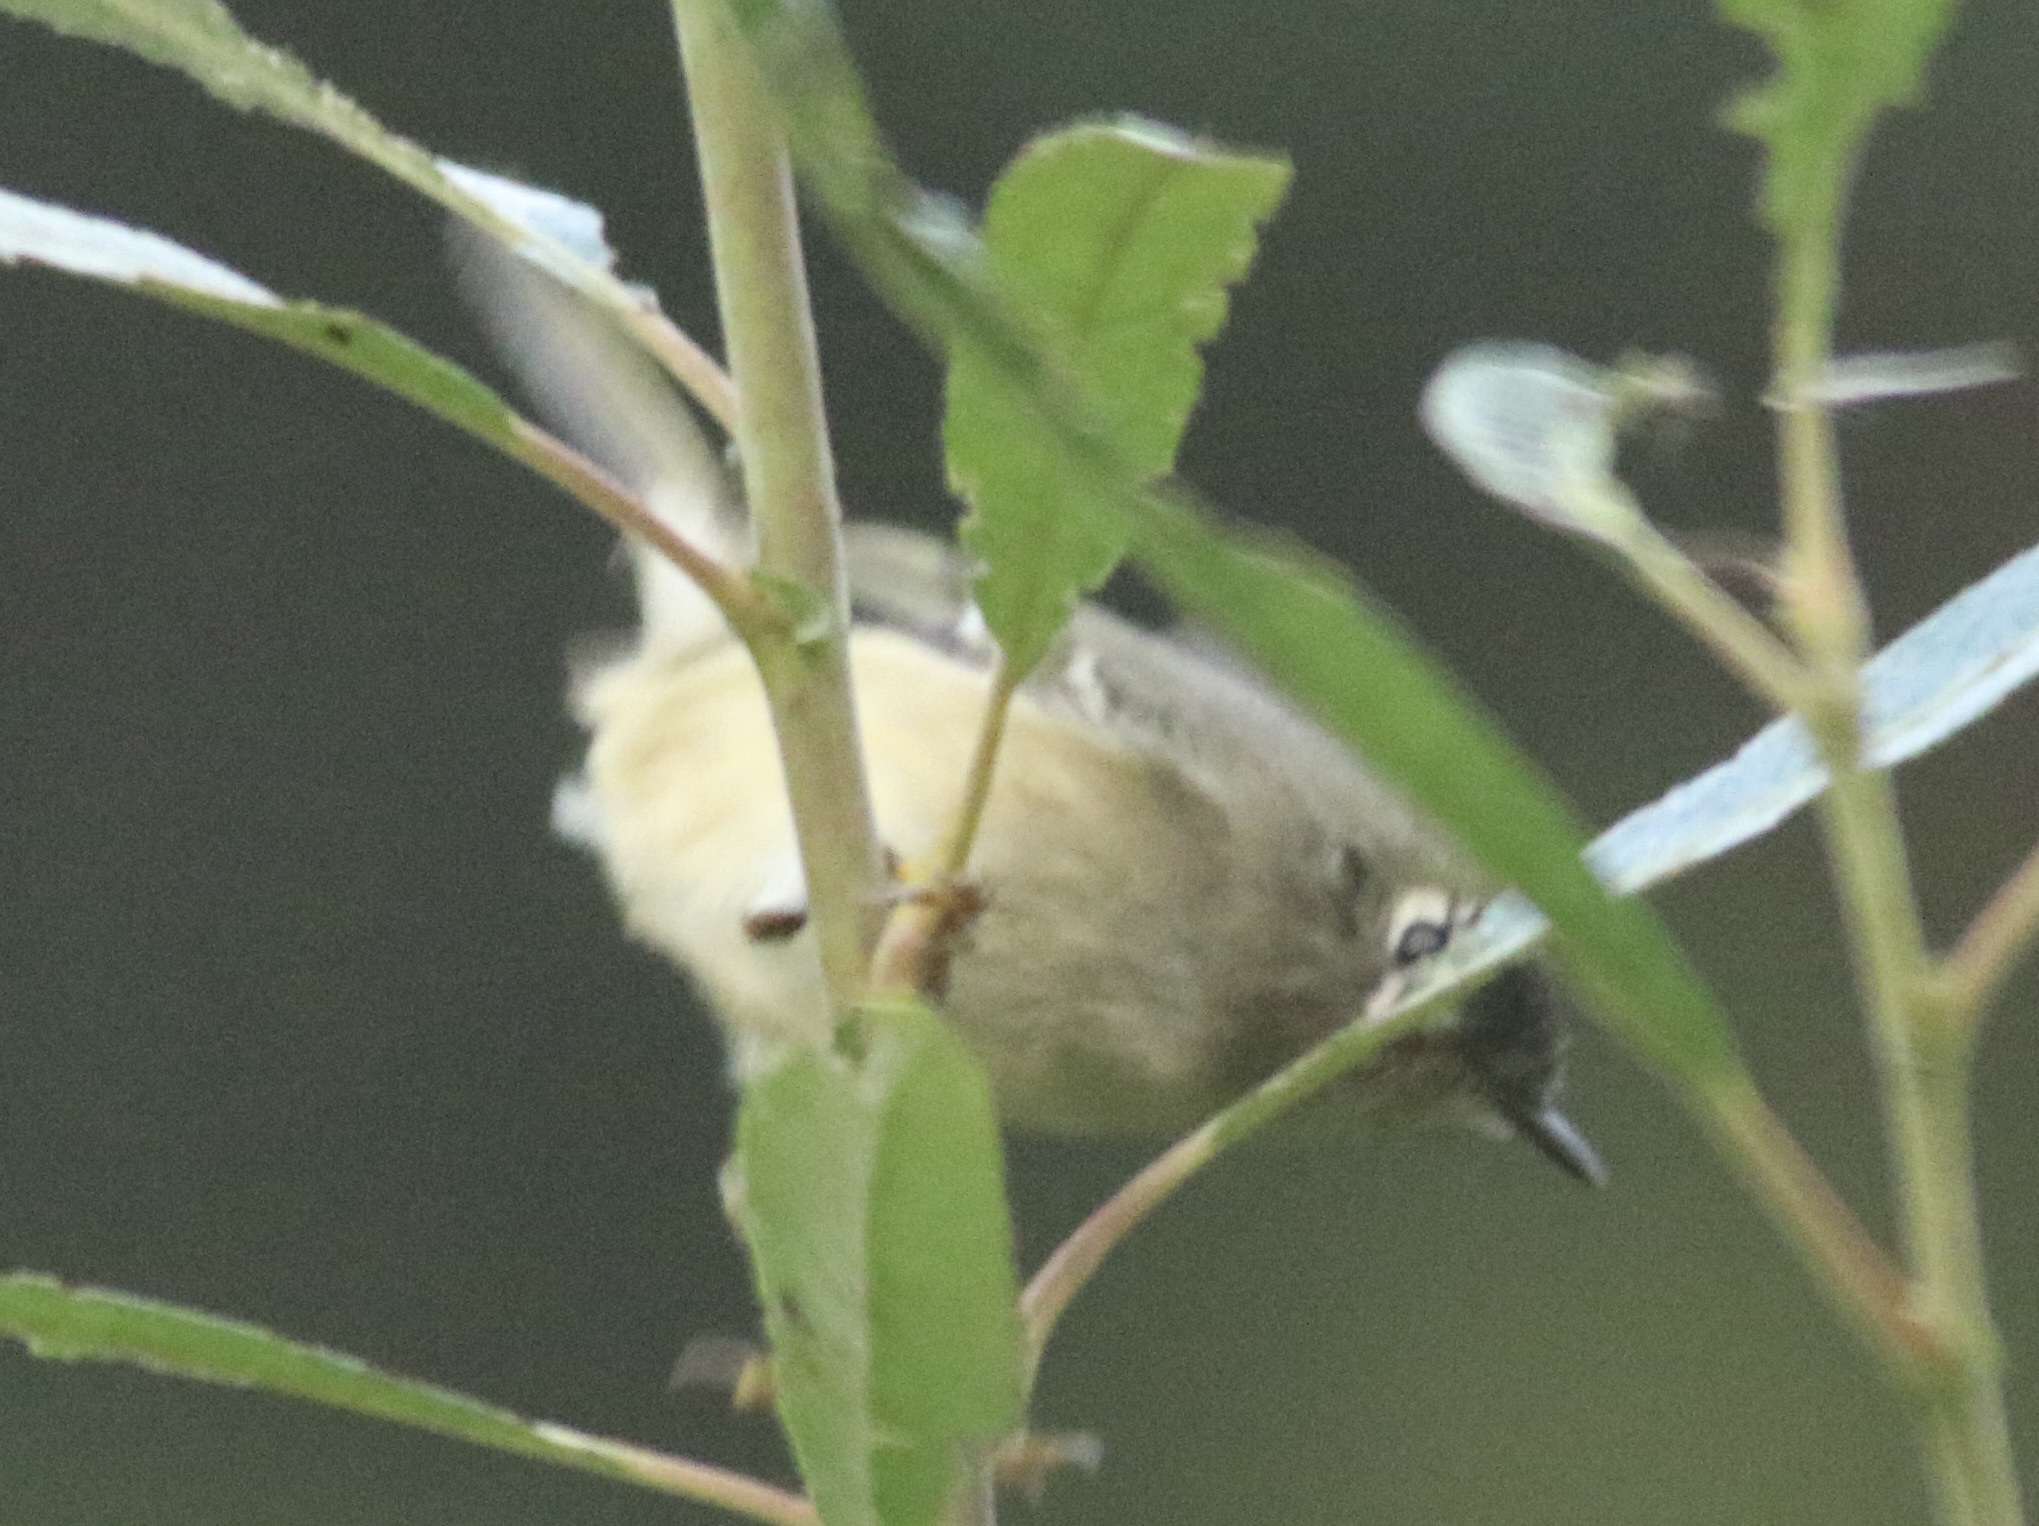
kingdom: Animalia
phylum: Chordata
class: Aves
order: Passeriformes
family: Regulidae
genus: Regulus
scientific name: Regulus calendula
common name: Ruby-crowned kinglet
